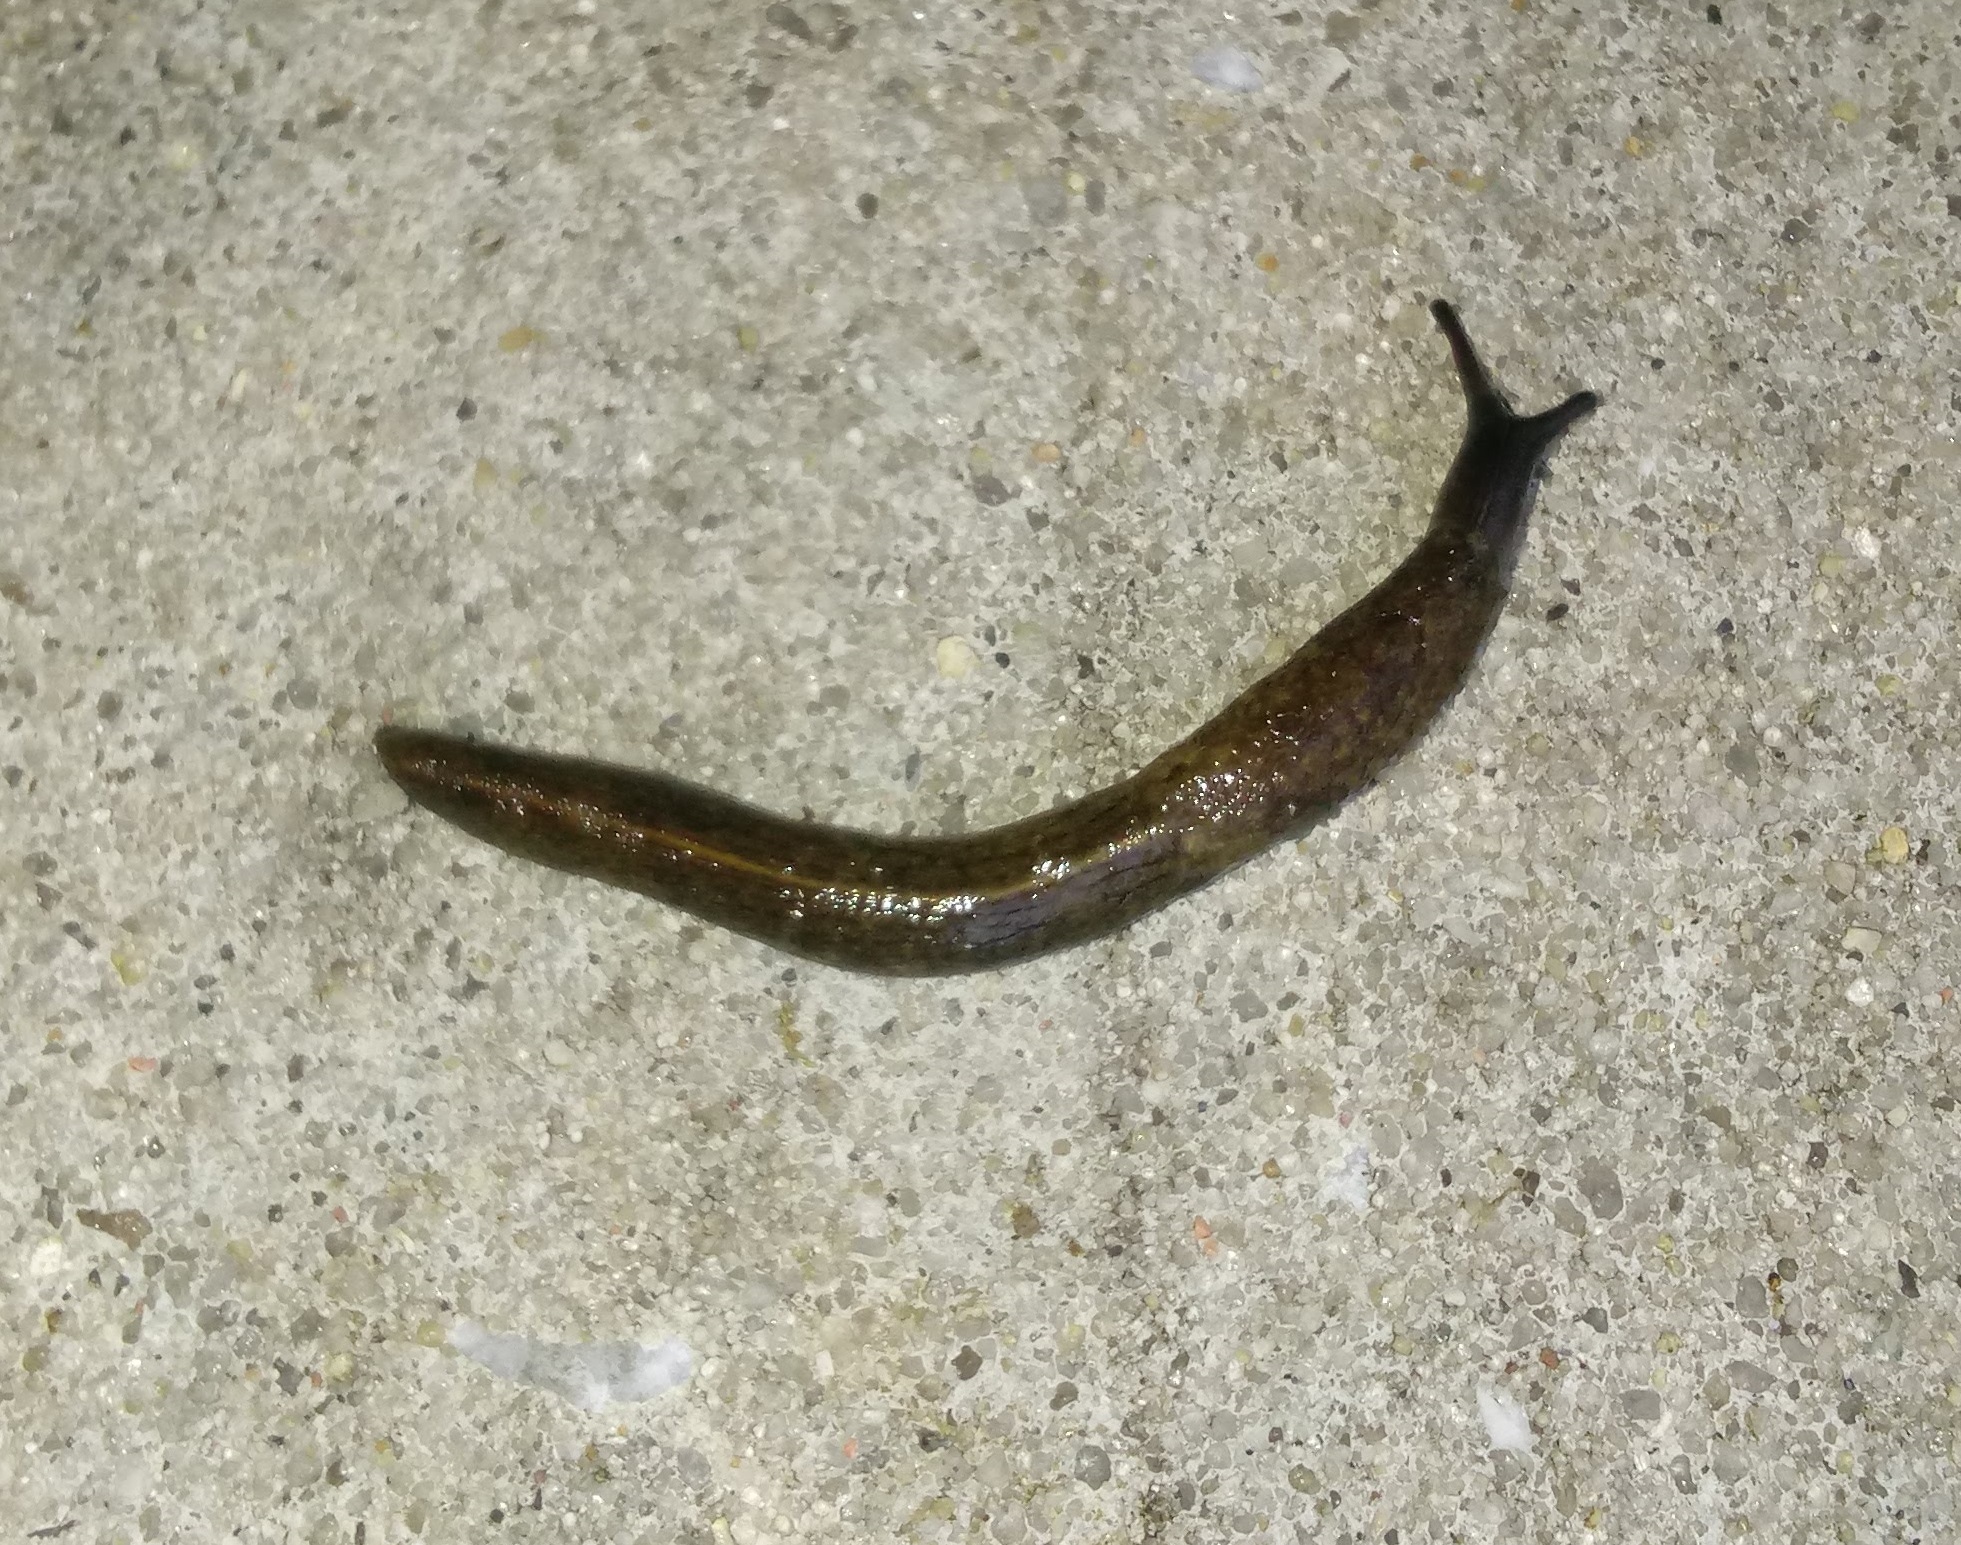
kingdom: Animalia
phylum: Mollusca
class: Gastropoda
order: Stylommatophora
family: Milacidae
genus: Tandonia
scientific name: Tandonia budapestensis
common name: Budapest slug
